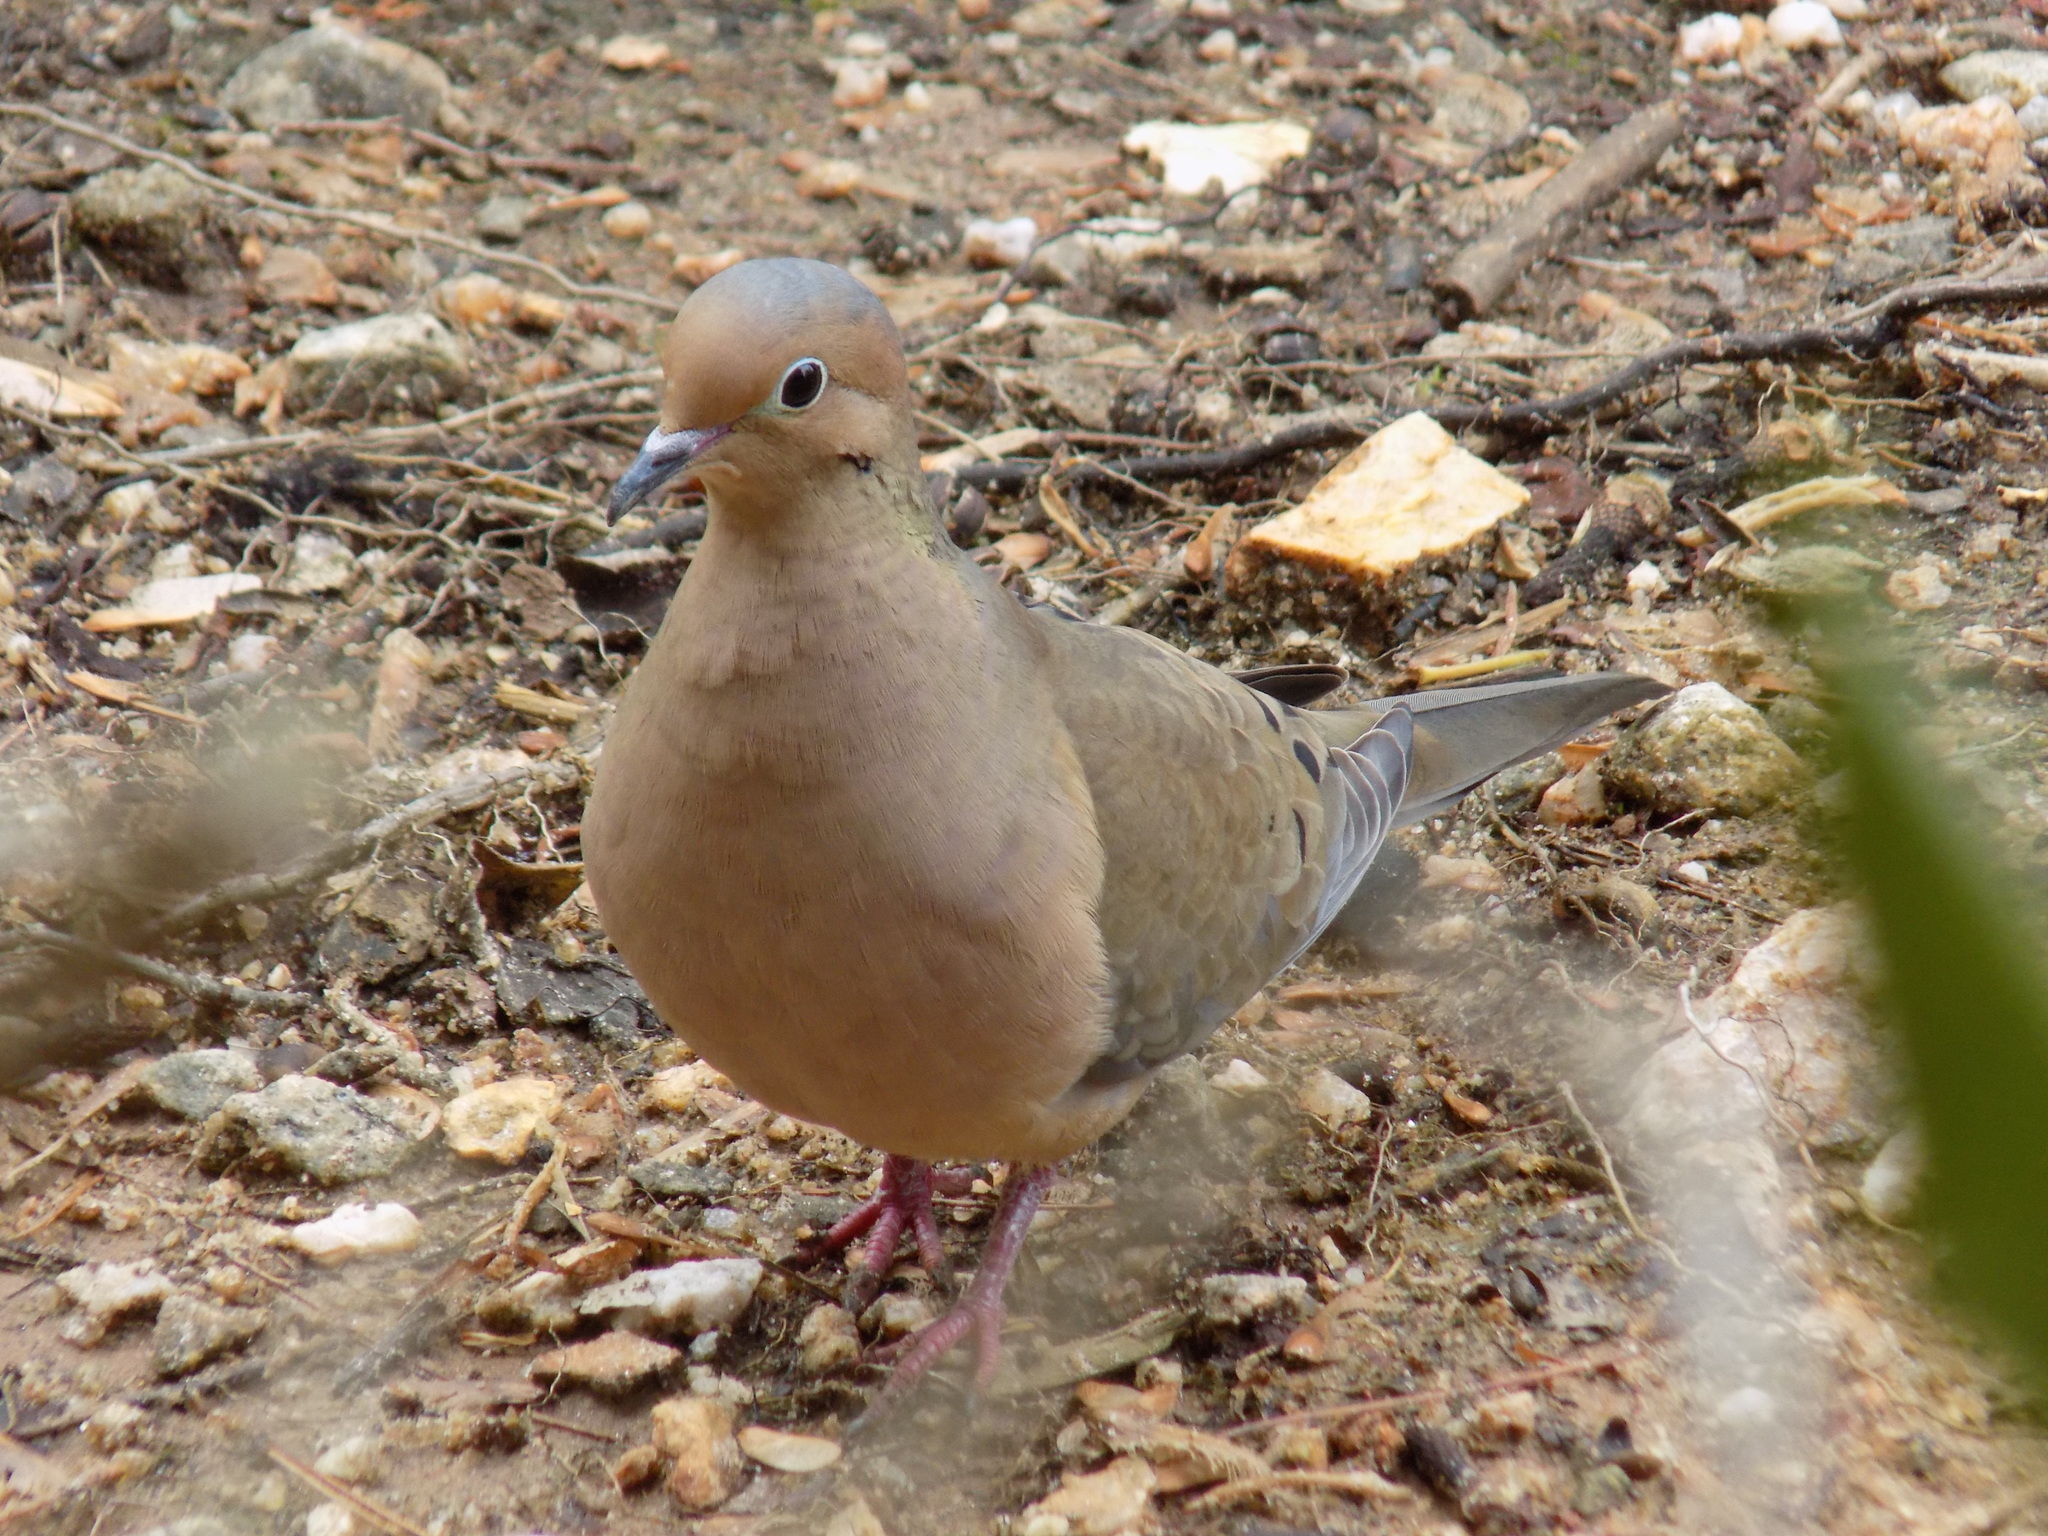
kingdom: Animalia
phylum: Chordata
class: Aves
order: Columbiformes
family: Columbidae
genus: Zenaida
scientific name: Zenaida macroura
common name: Mourning dove
